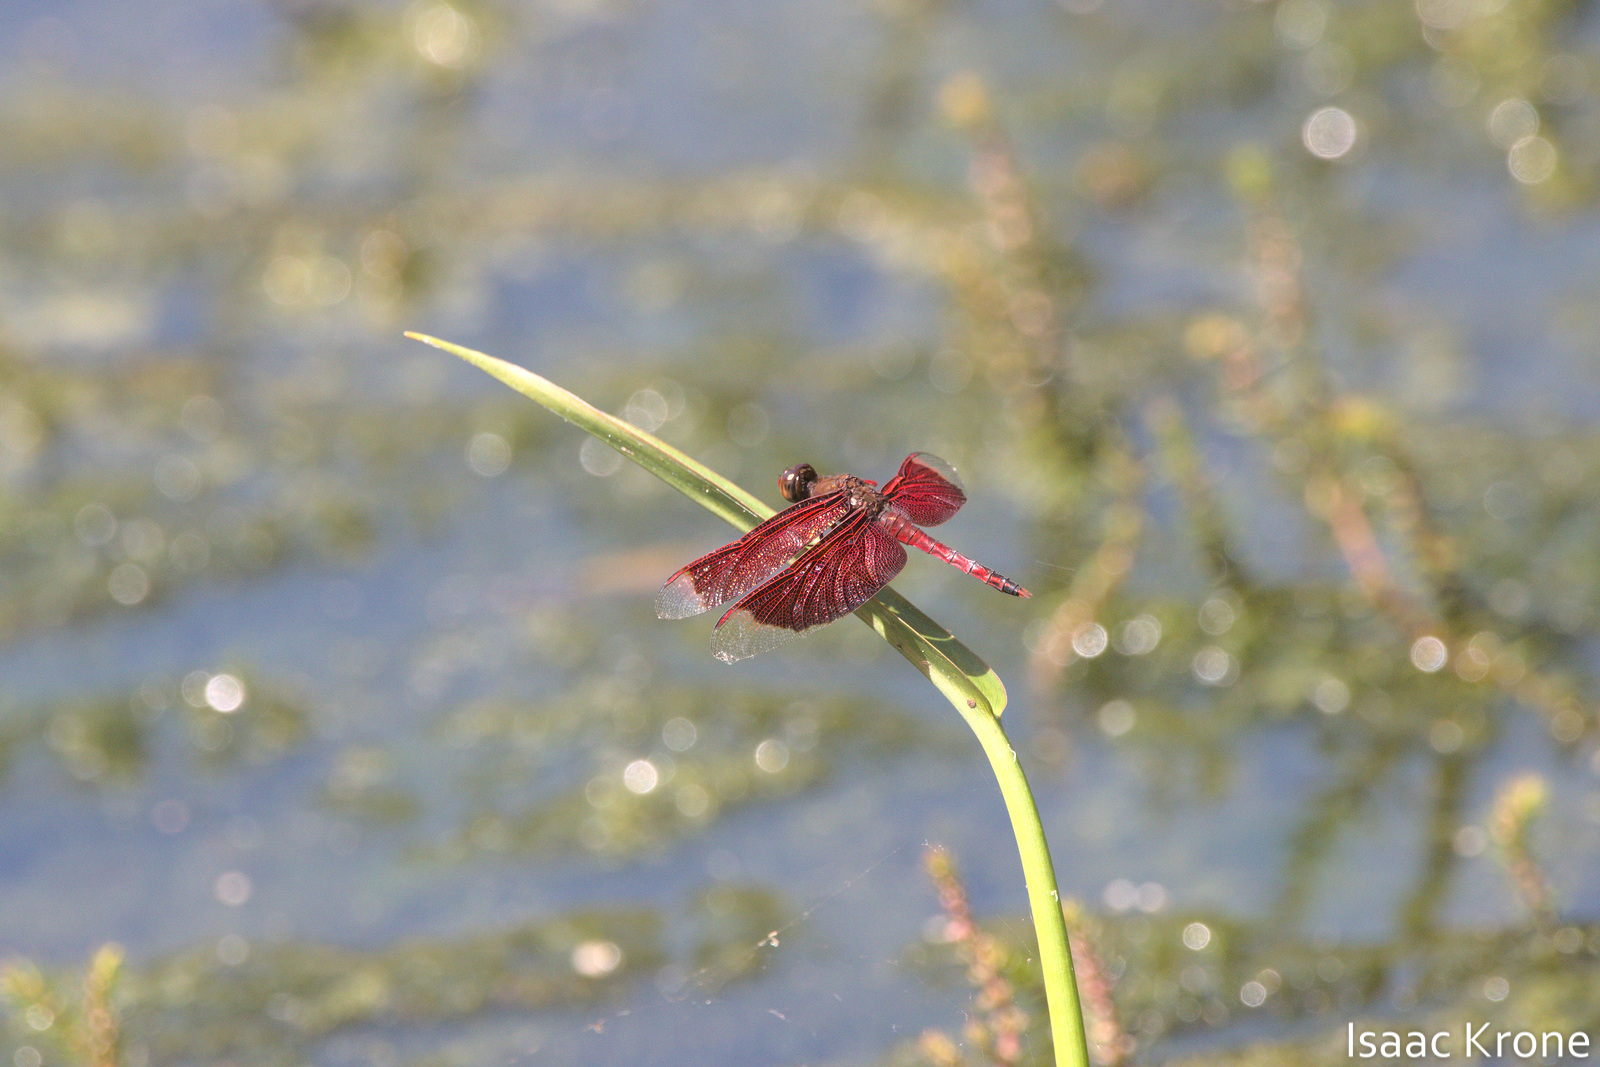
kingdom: Animalia
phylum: Arthropoda
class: Insecta
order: Odonata
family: Libellulidae
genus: Neurothemis
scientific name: Neurothemis ramburii
